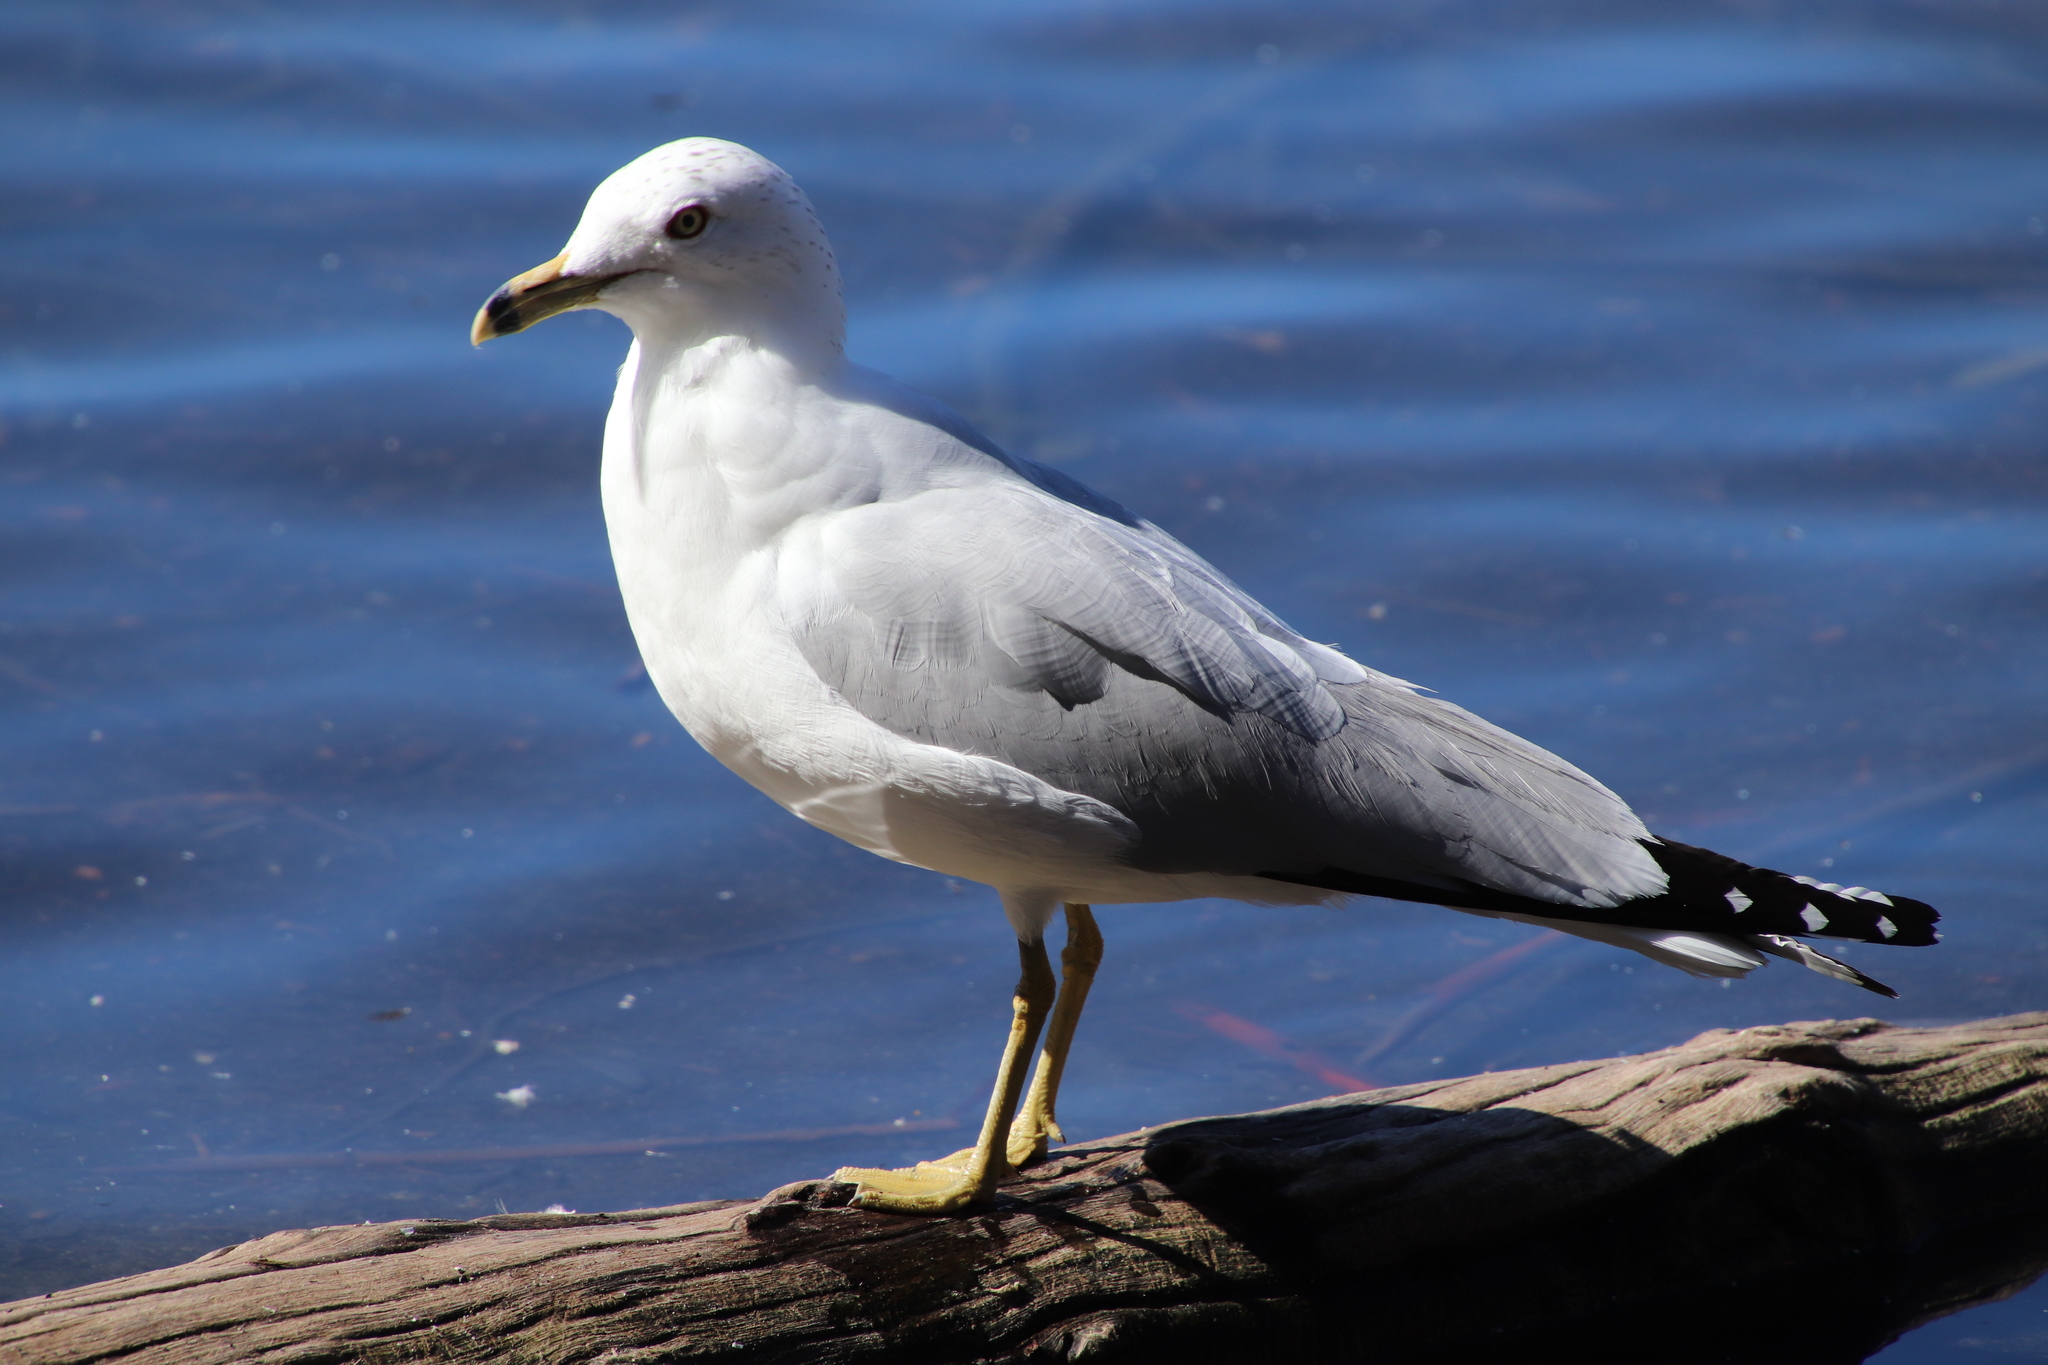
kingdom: Animalia
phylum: Chordata
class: Aves
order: Charadriiformes
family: Laridae
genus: Larus
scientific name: Larus delawarensis
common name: Ring-billed gull
